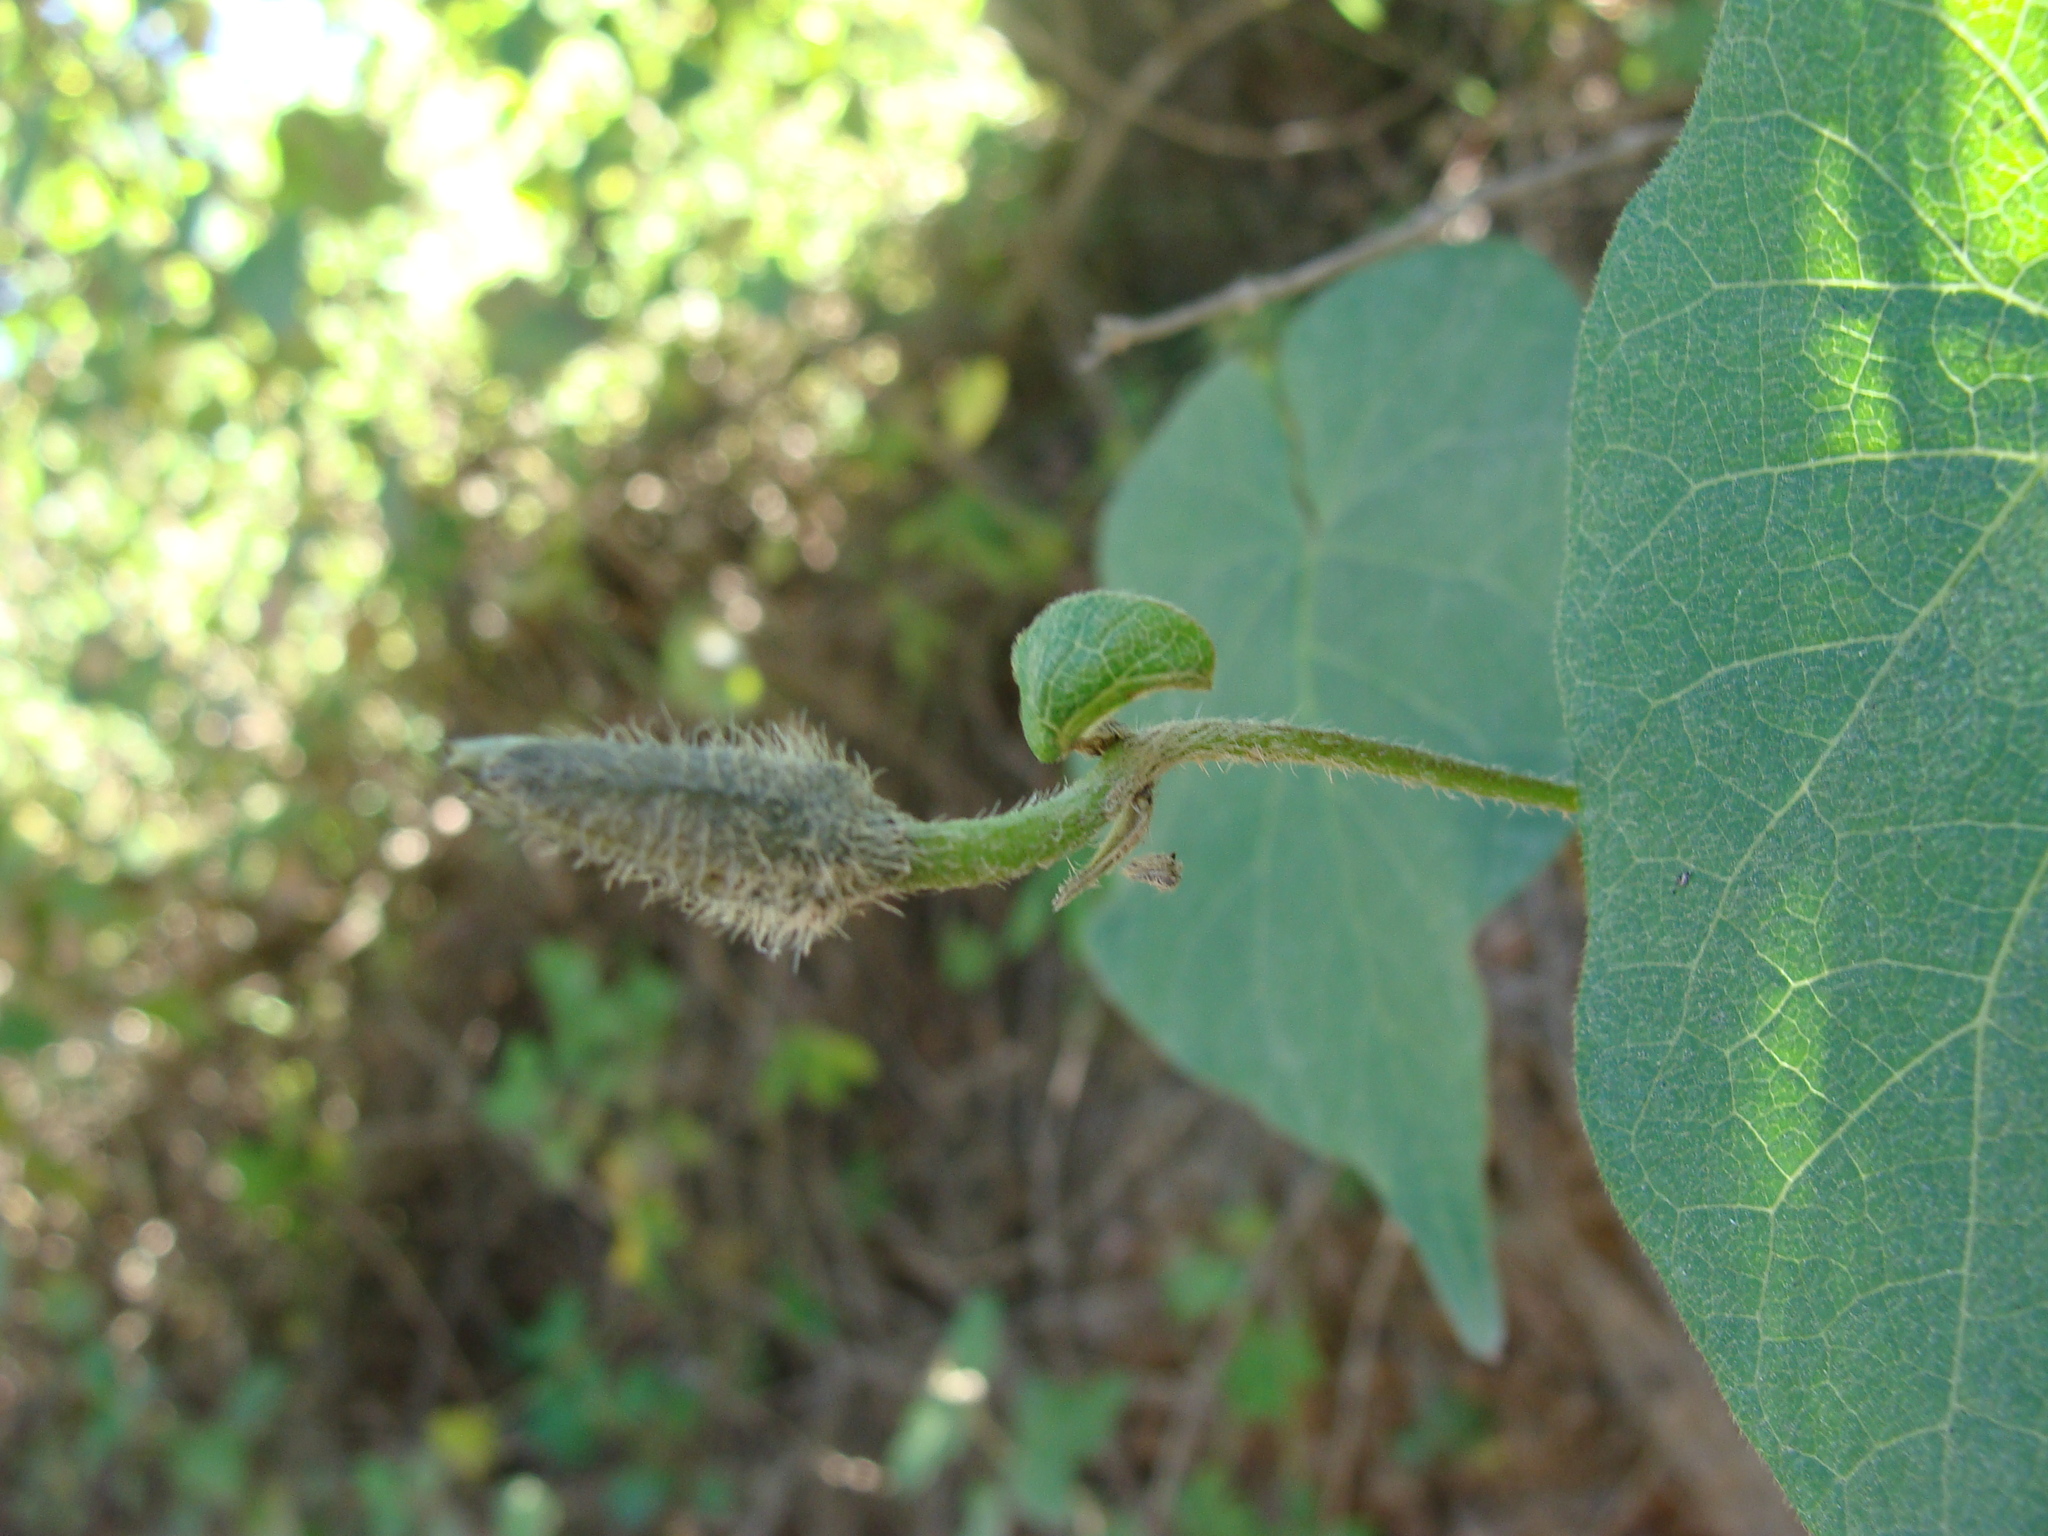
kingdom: Plantae
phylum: Tracheophyta
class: Magnoliopsida
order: Solanales
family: Convolvulaceae
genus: Ipomoea
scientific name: Ipomoea orizabensis
